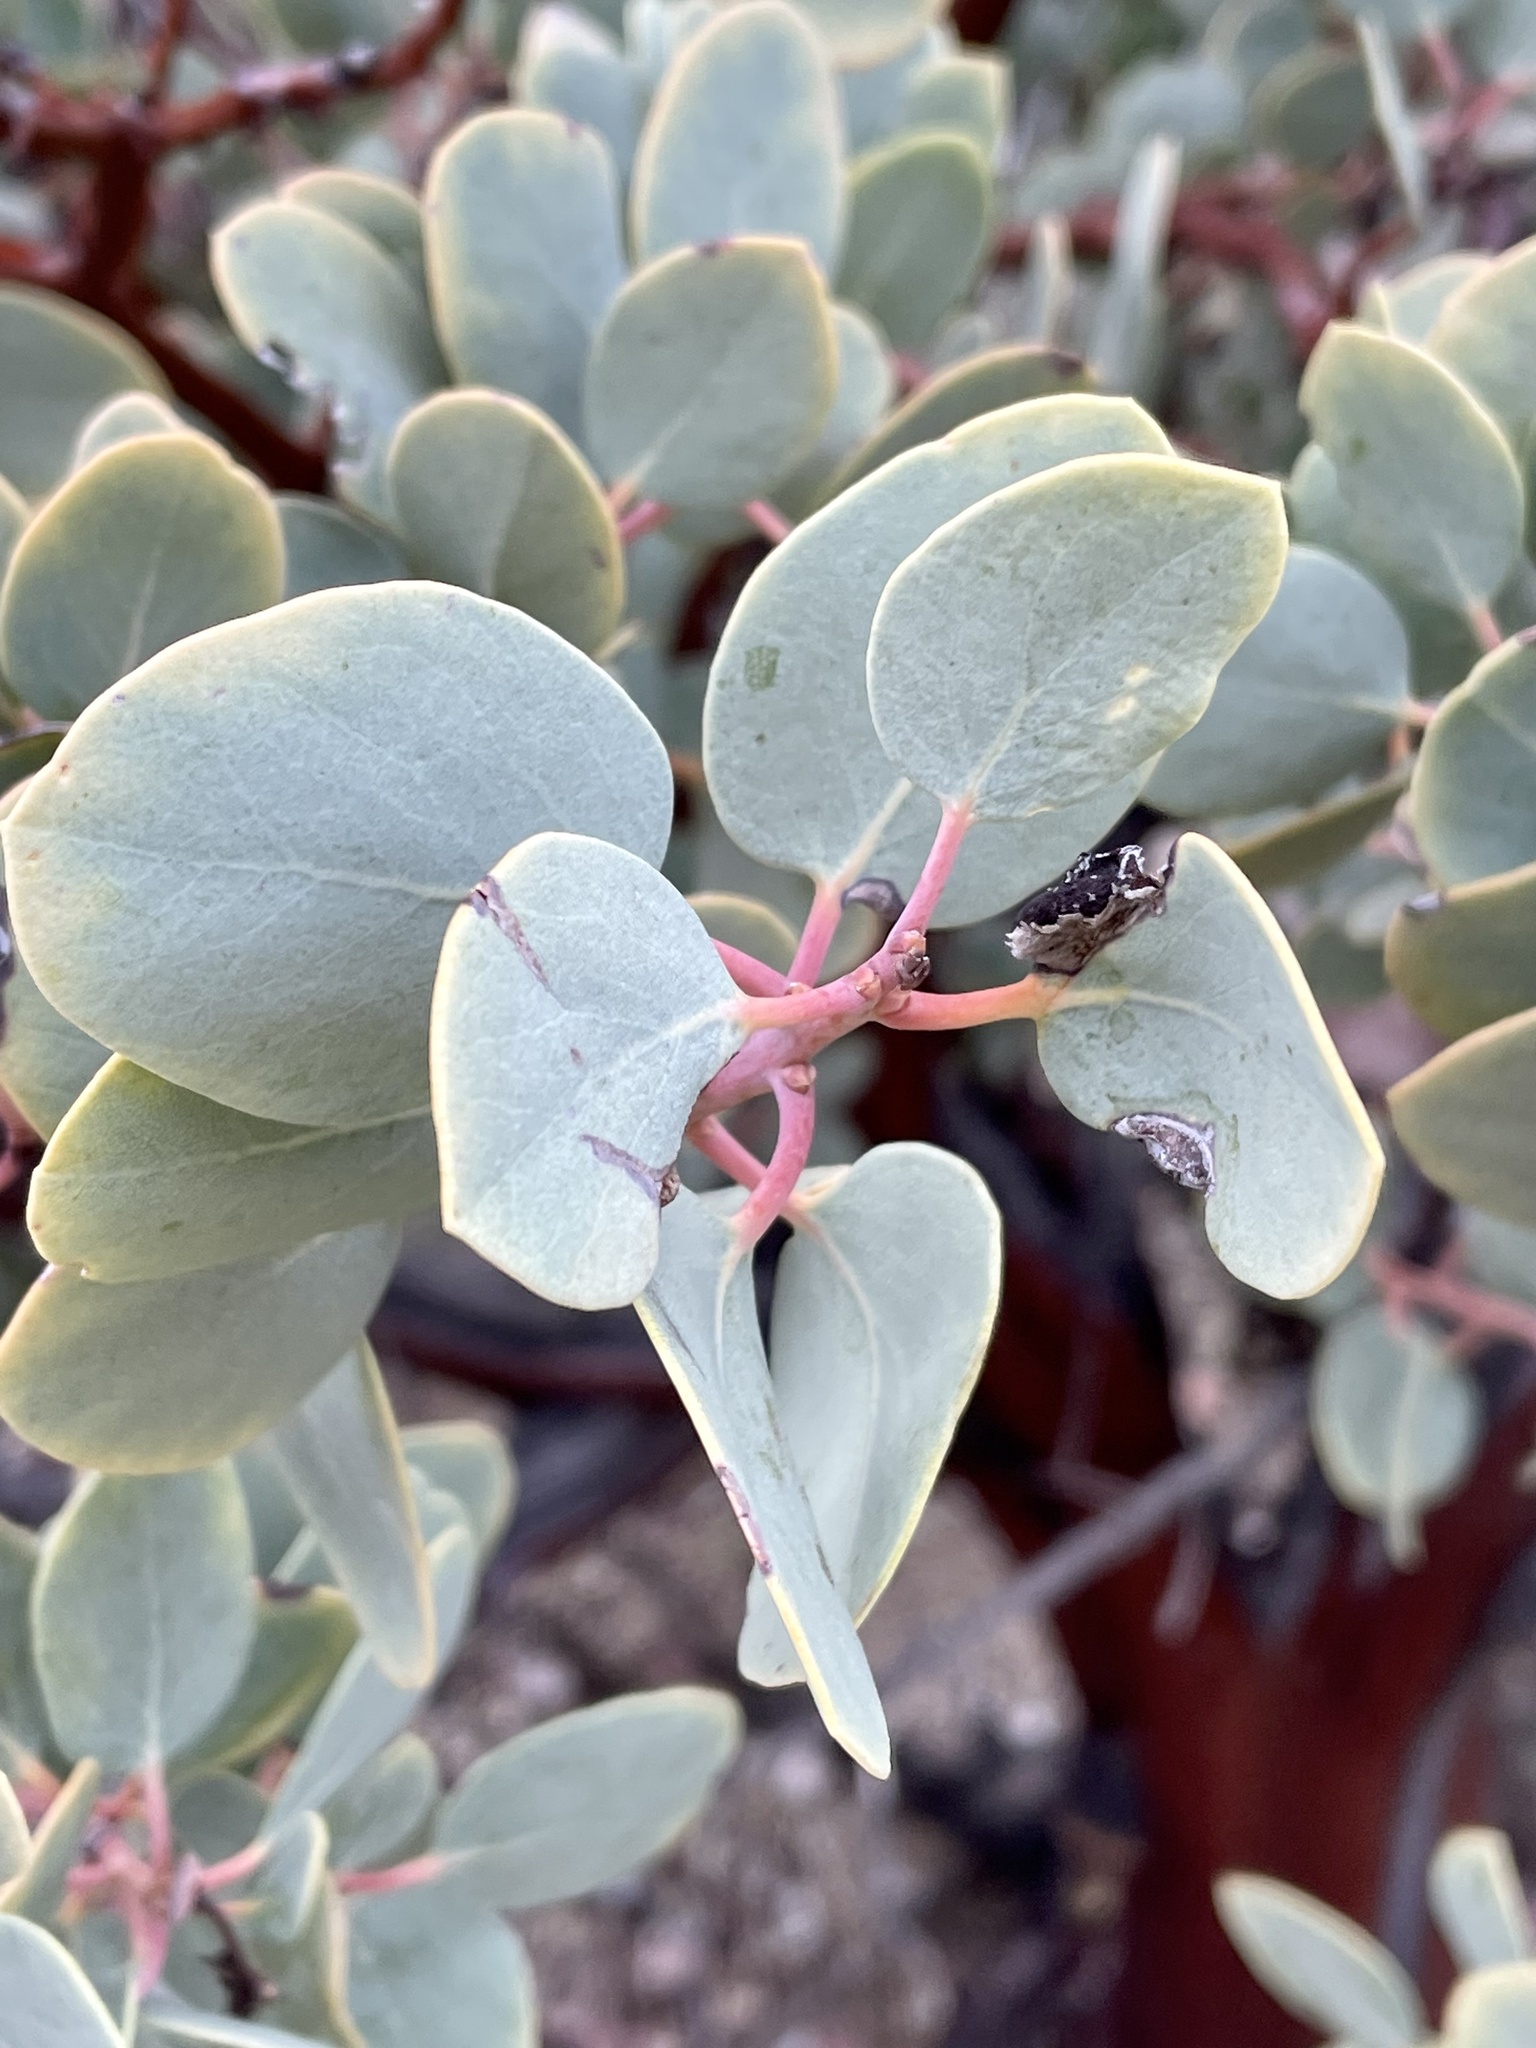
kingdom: Plantae
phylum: Tracheophyta
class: Magnoliopsida
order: Ericales
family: Ericaceae
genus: Arctostaphylos
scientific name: Arctostaphylos glauca
